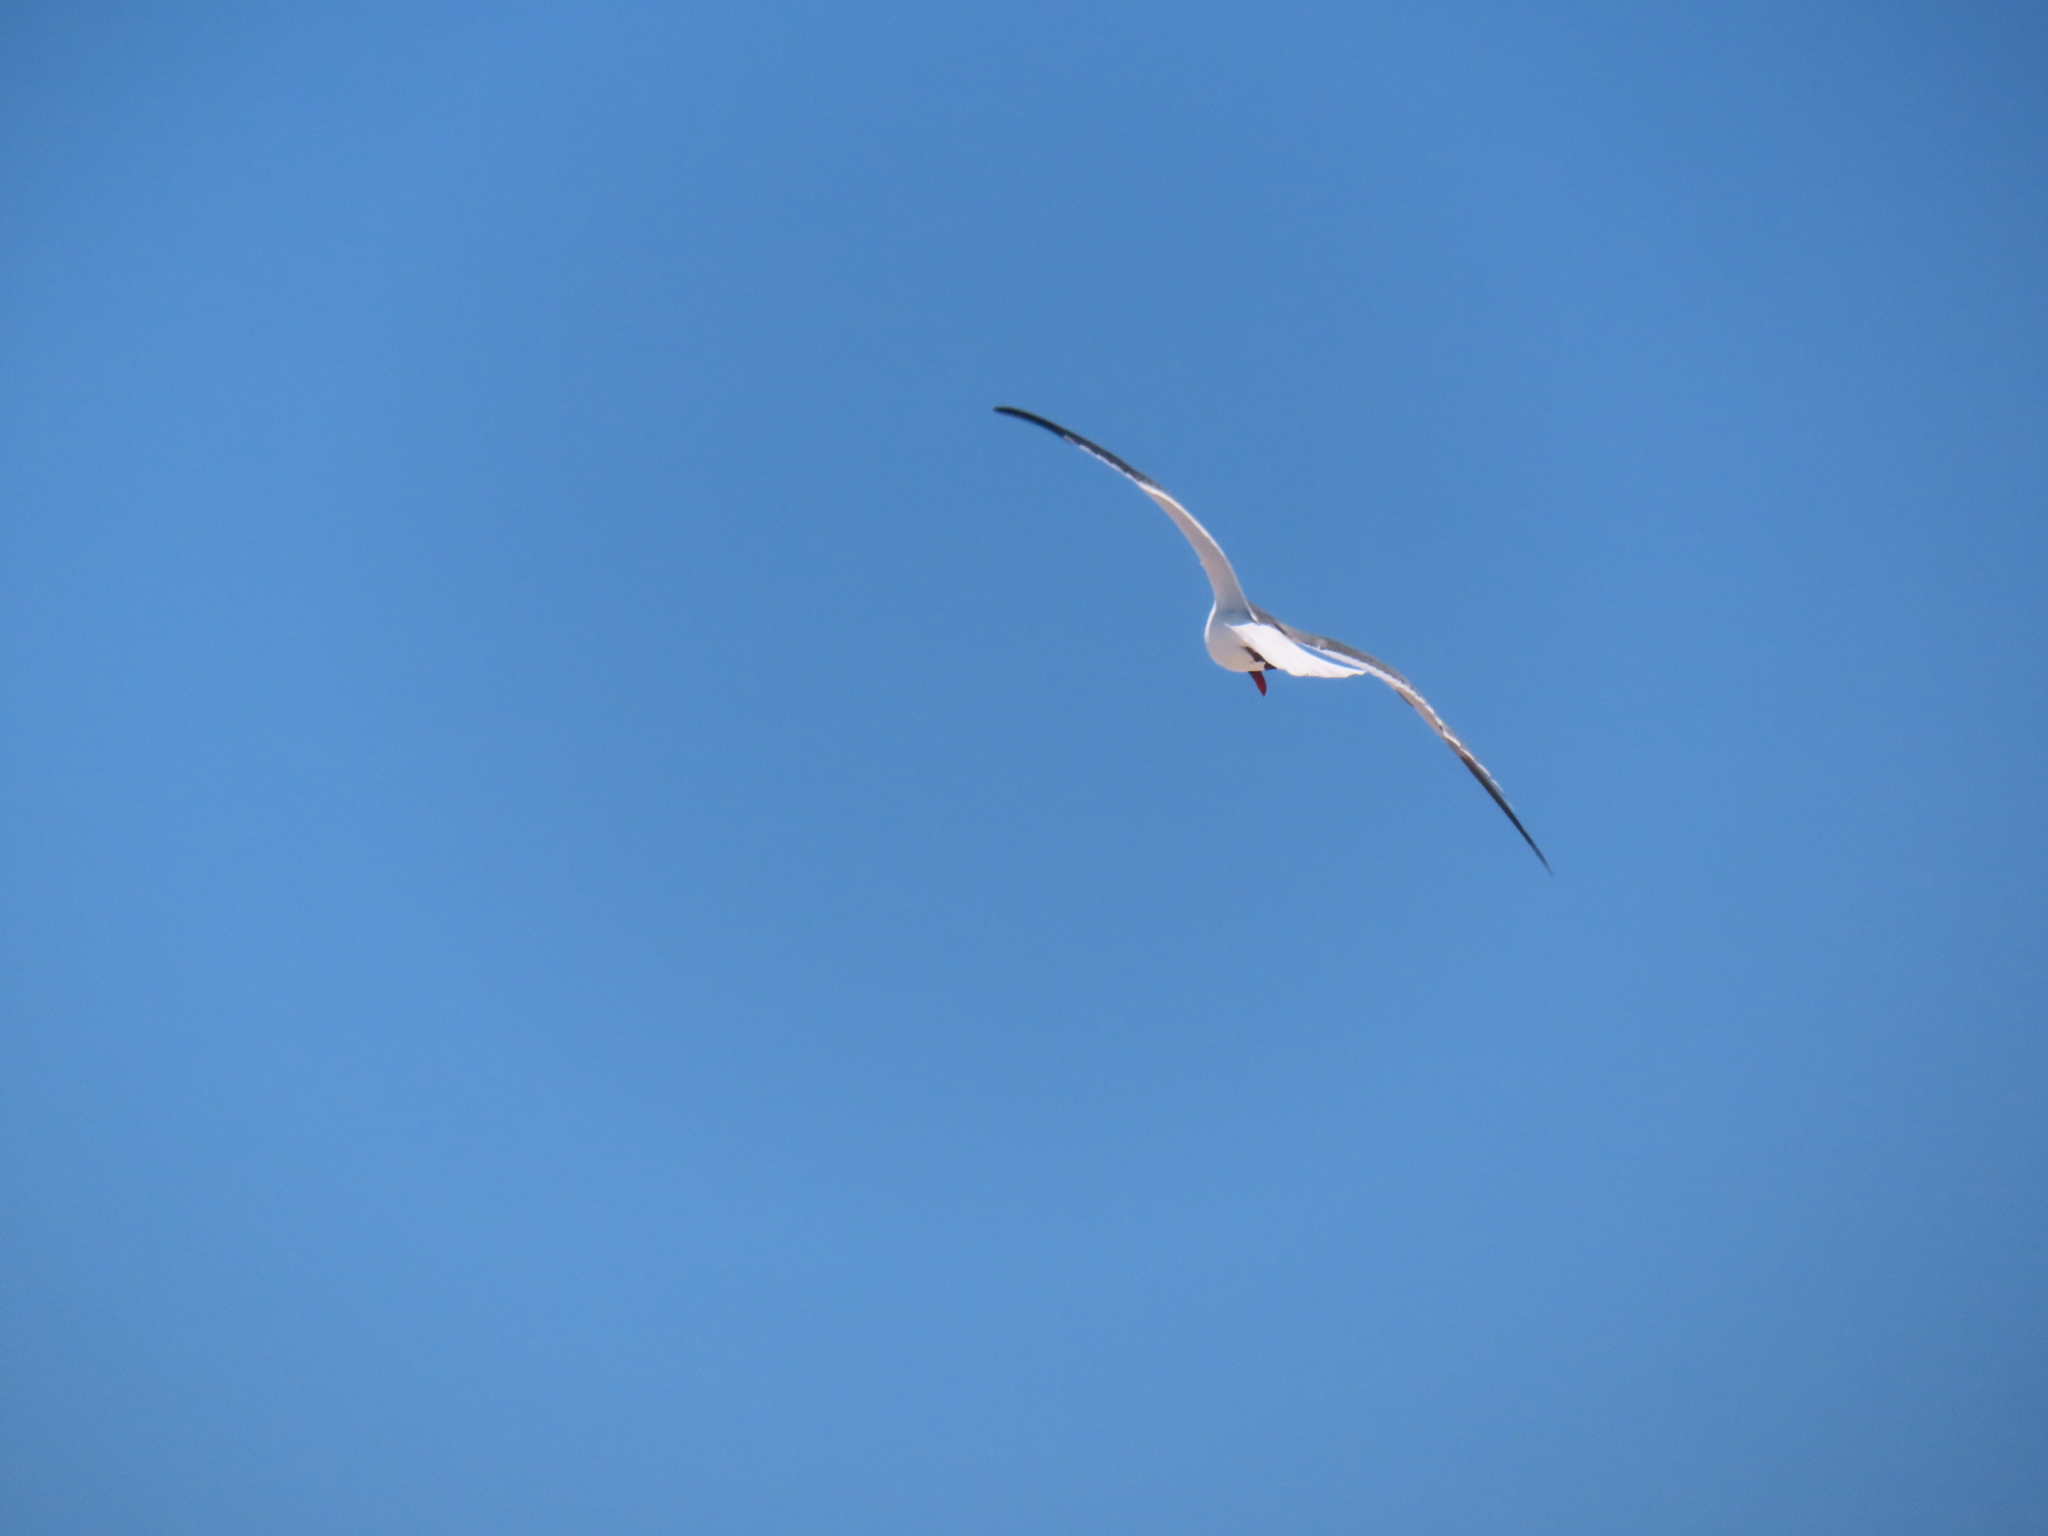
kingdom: Animalia
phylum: Chordata
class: Aves
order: Charadriiformes
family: Laridae
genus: Leucophaeus
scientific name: Leucophaeus atricilla
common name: Laughing gull
